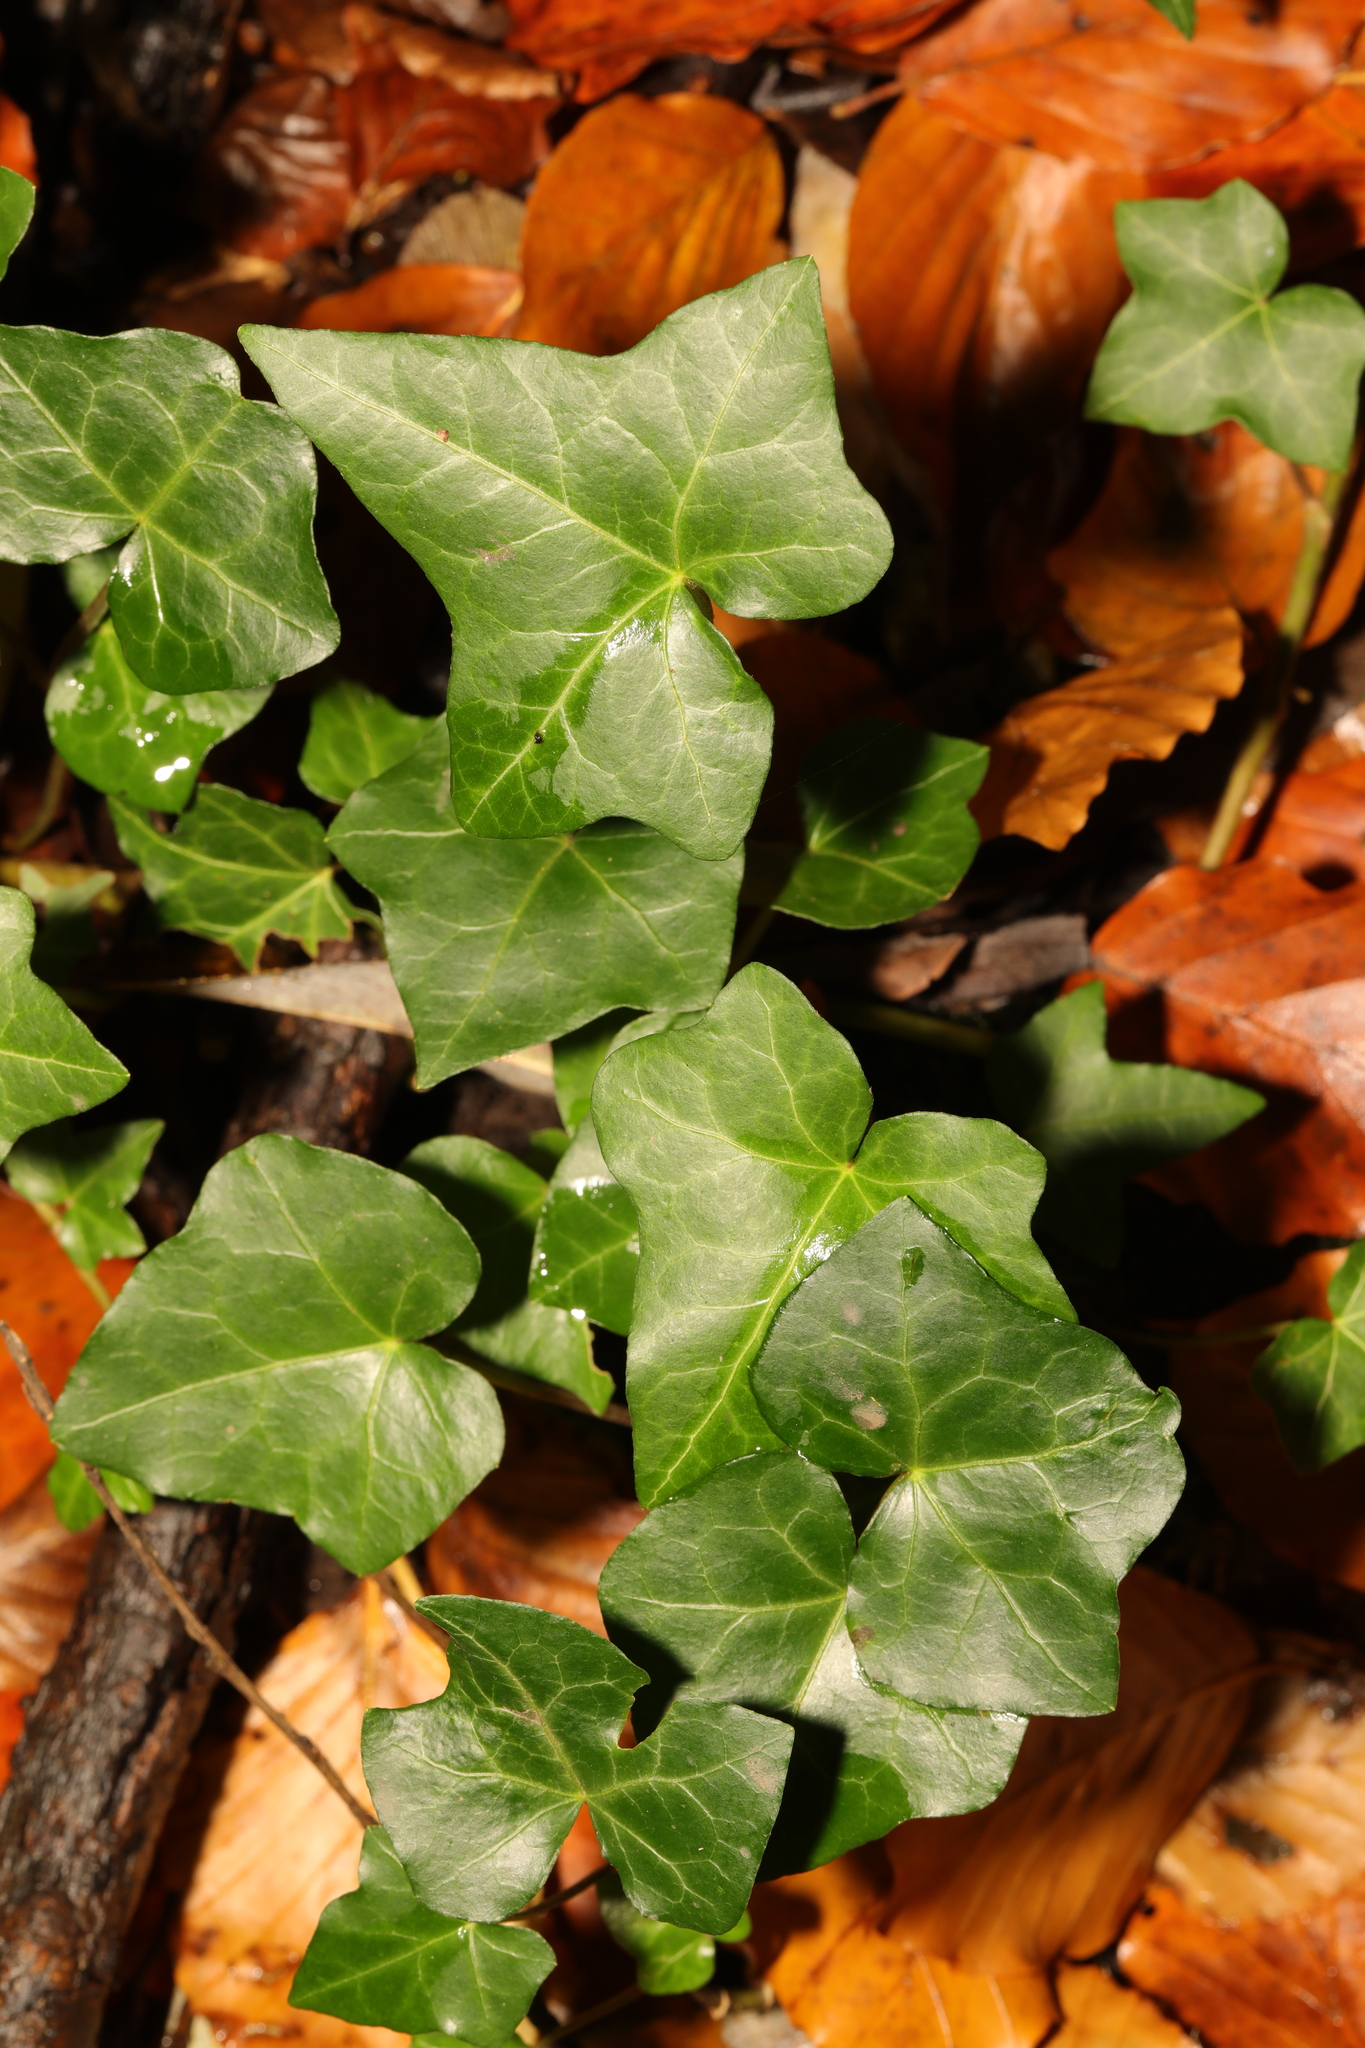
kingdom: Plantae
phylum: Tracheophyta
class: Magnoliopsida
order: Apiales
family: Araliaceae
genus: Hedera
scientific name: Hedera helix
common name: Ivy
